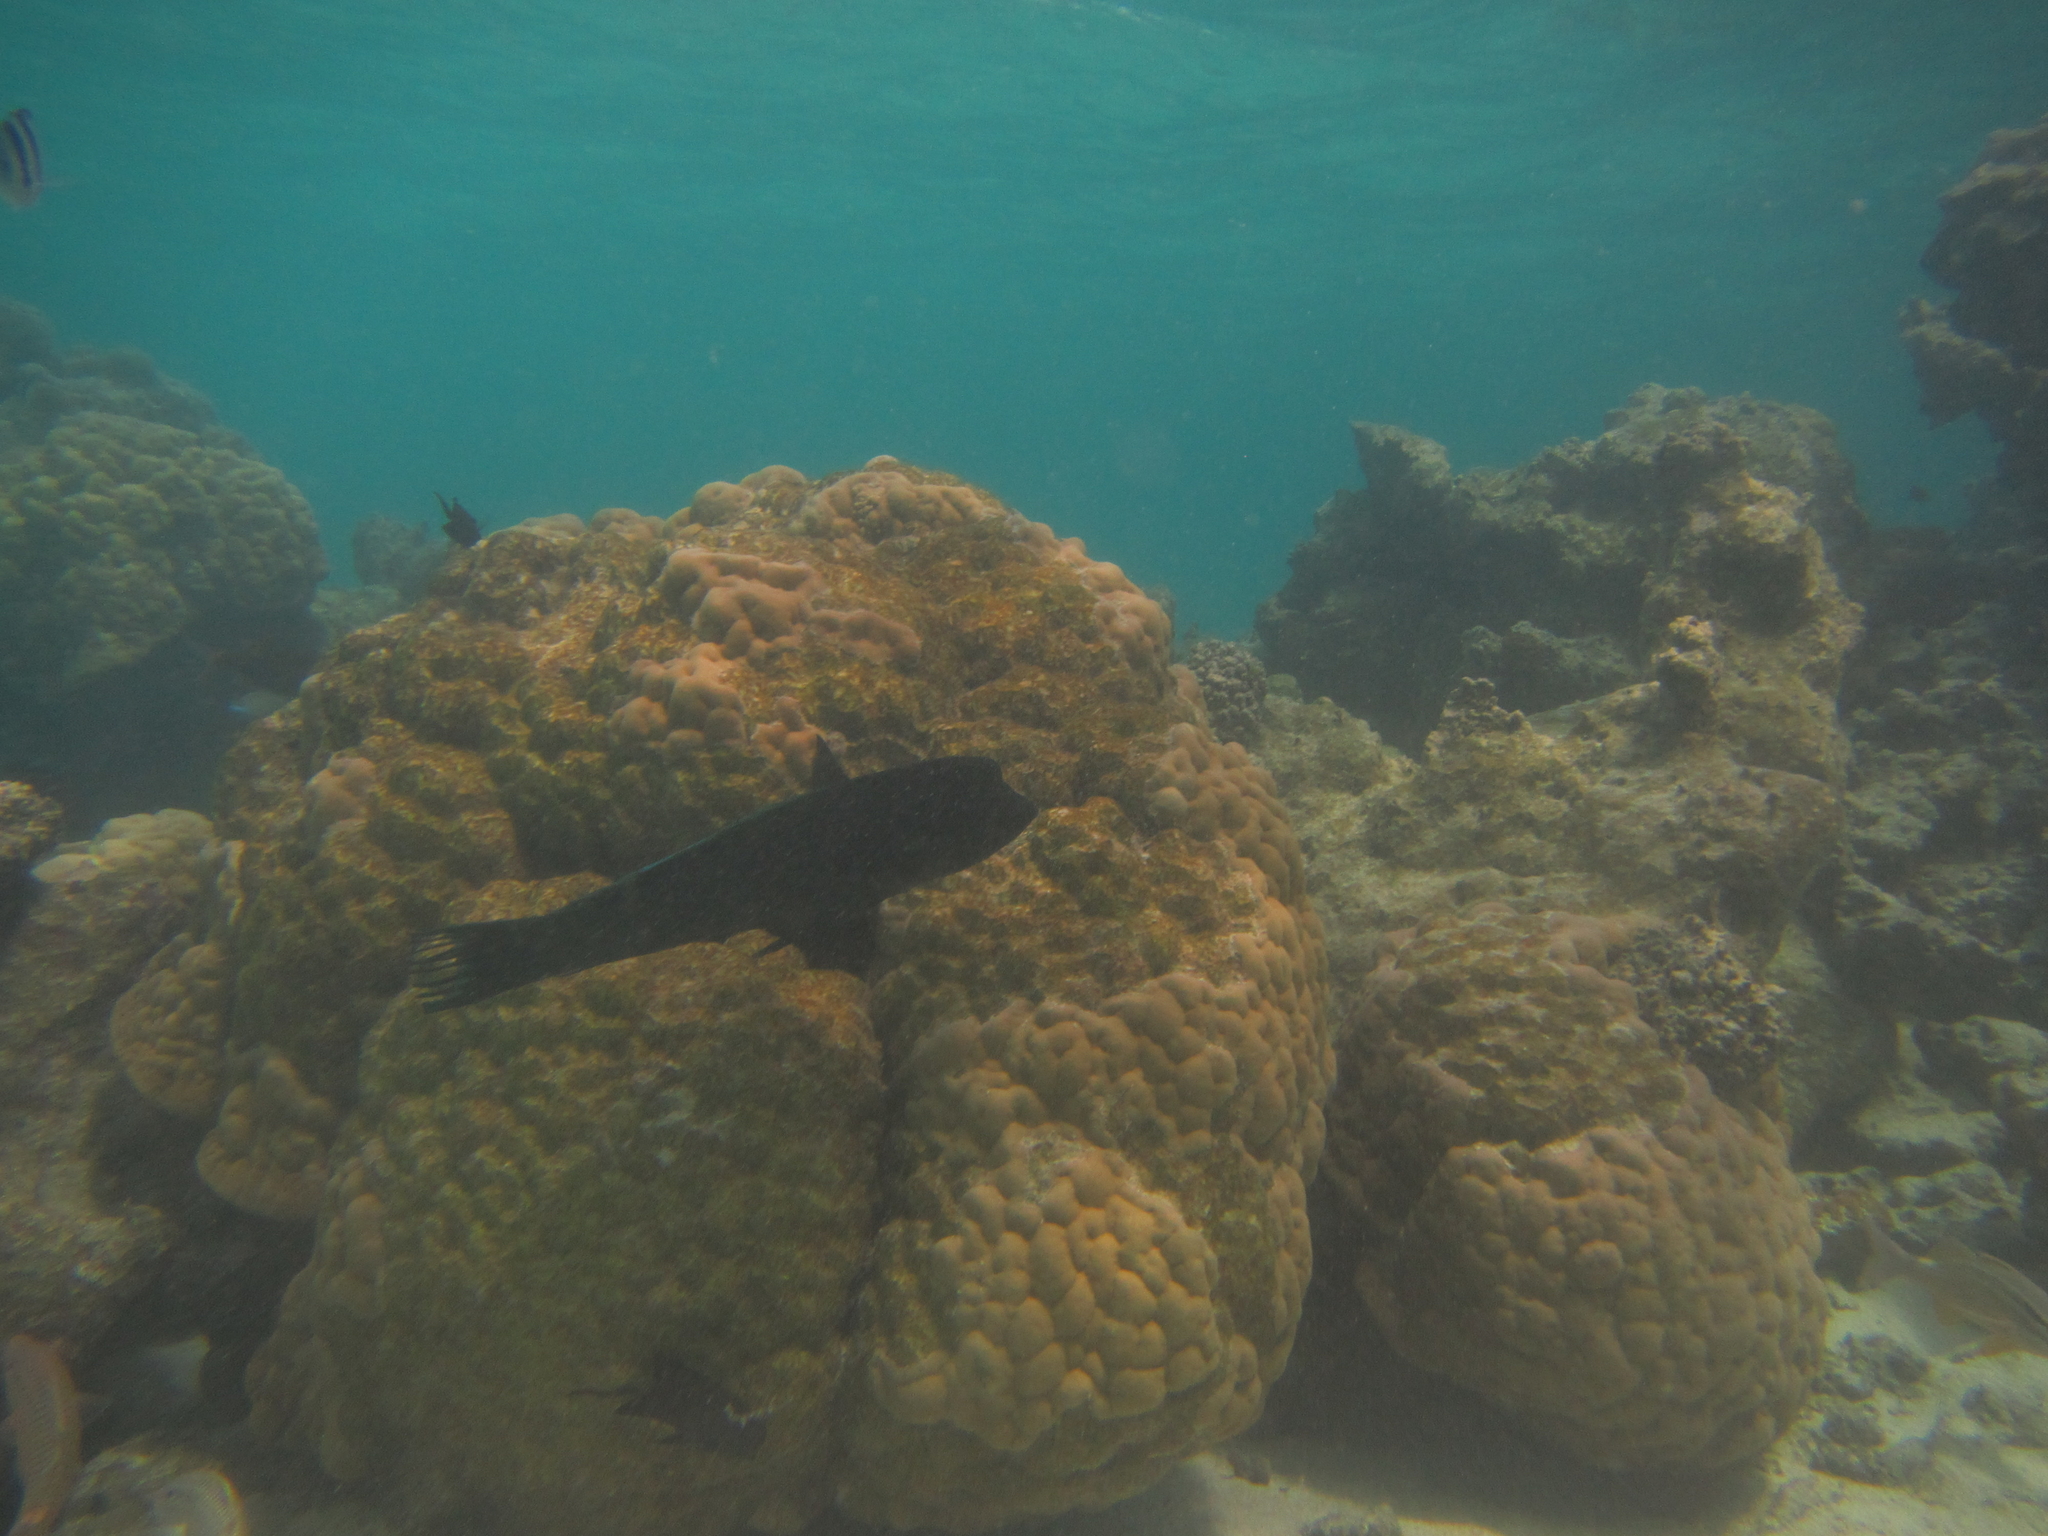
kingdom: Animalia
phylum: Chordata
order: Perciformes
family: Labridae
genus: Coris
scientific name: Coris aygula
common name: Clown coris
